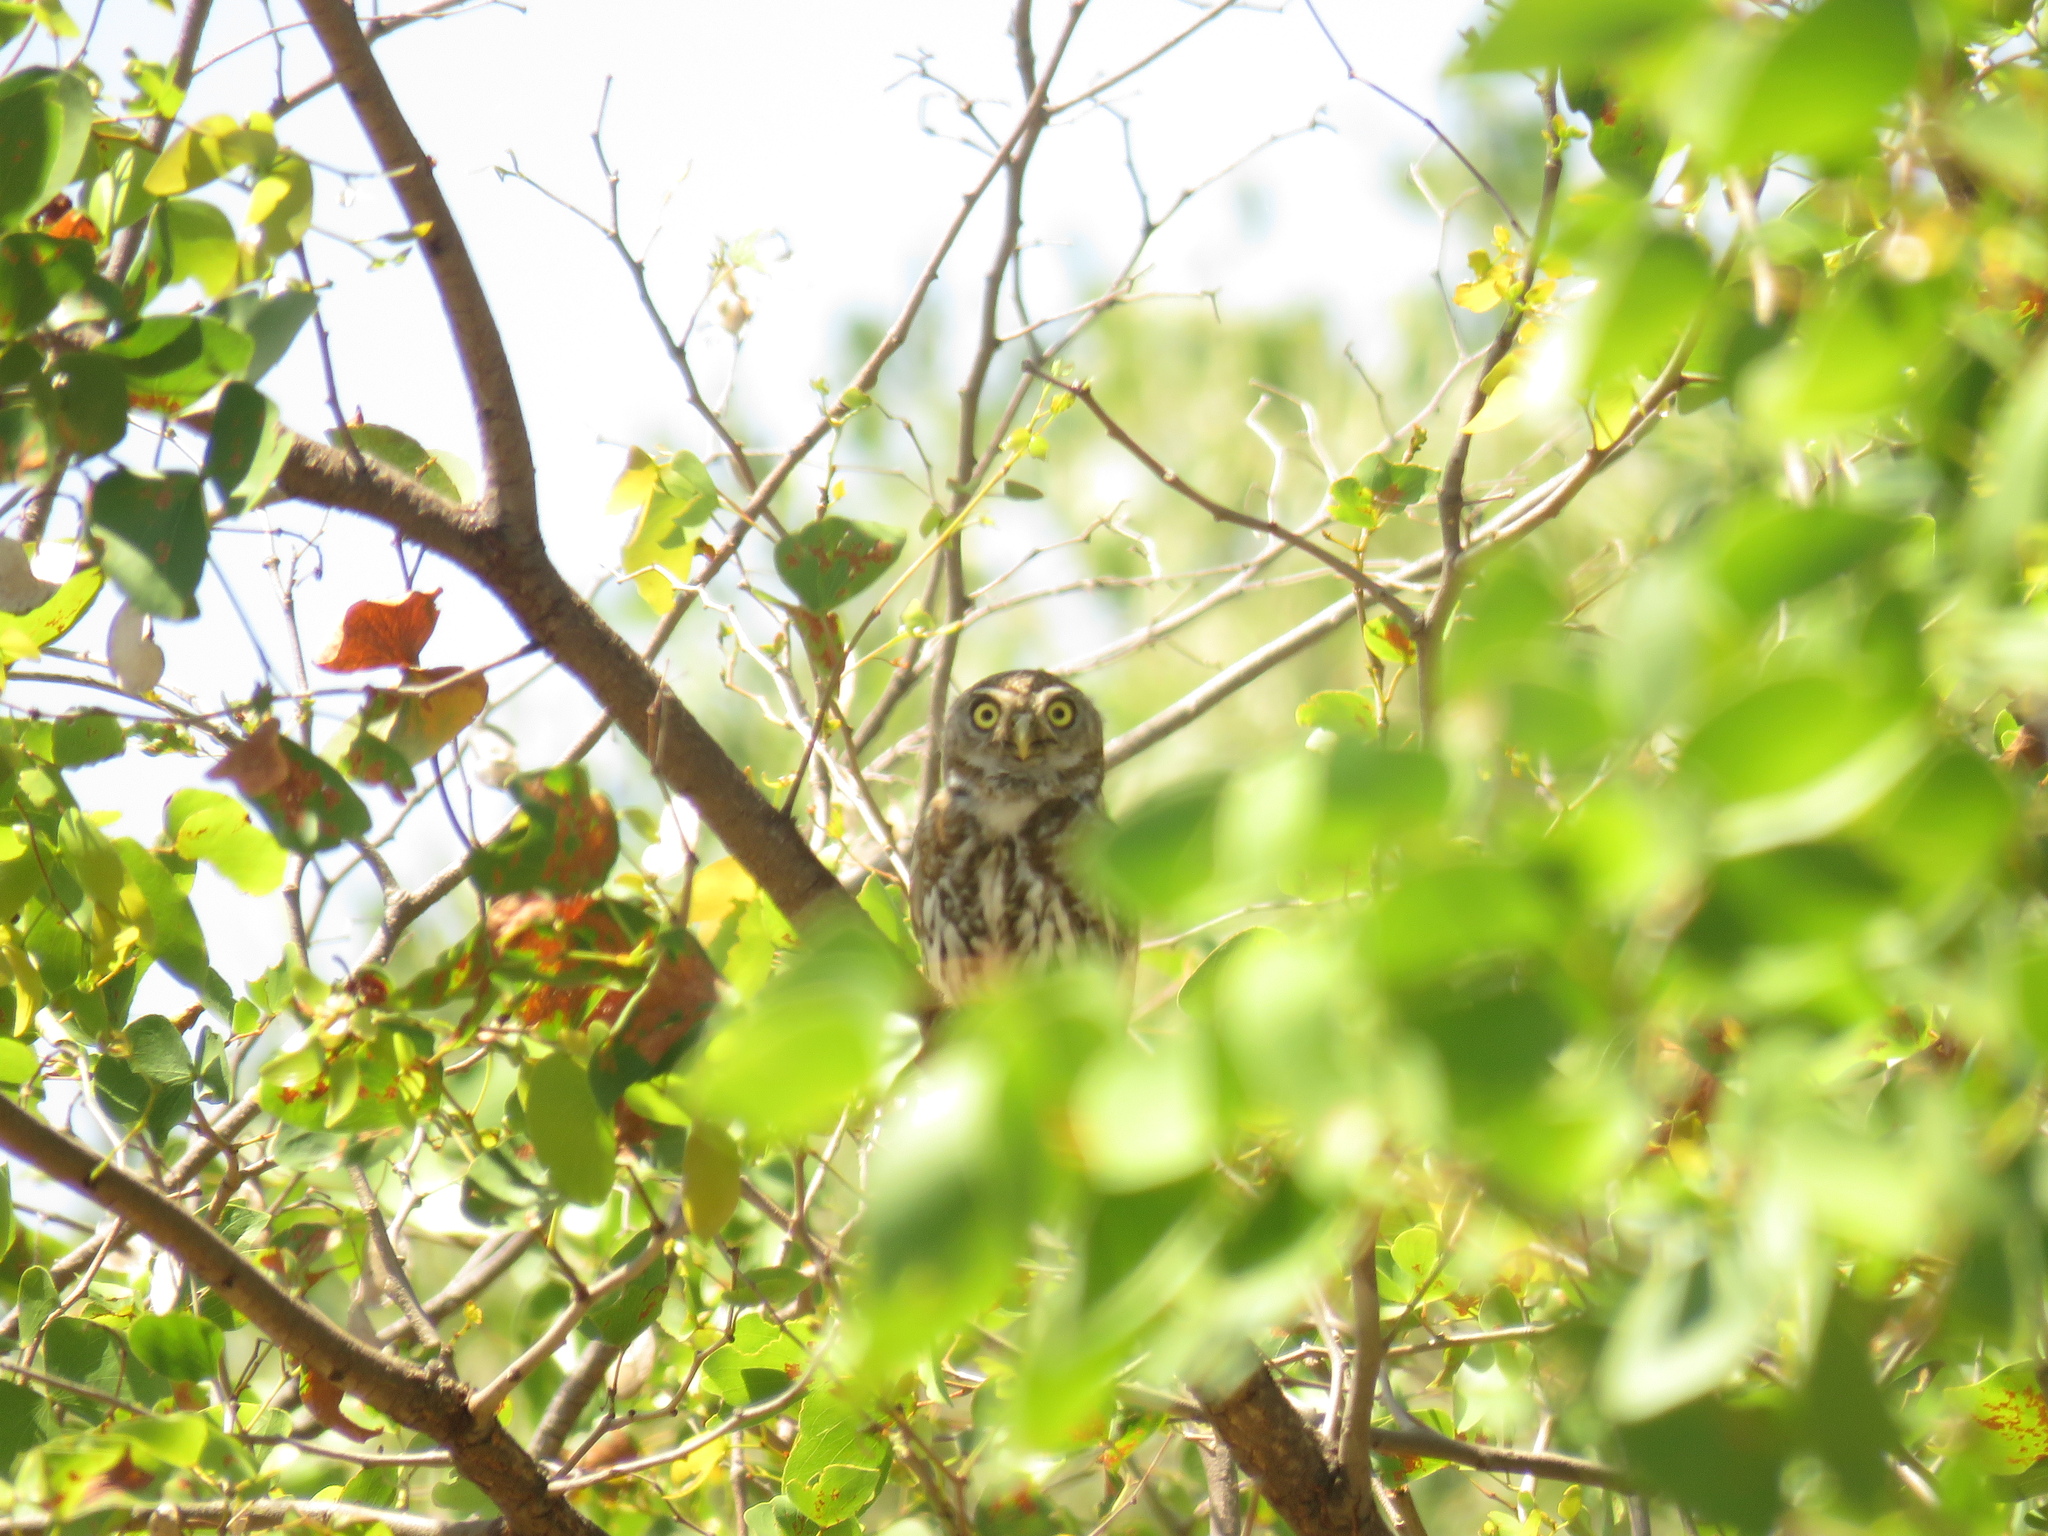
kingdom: Animalia
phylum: Chordata
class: Aves
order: Strigiformes
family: Strigidae
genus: Glaucidium
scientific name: Glaucidium perlatum
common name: Pearl-spotted owlet
